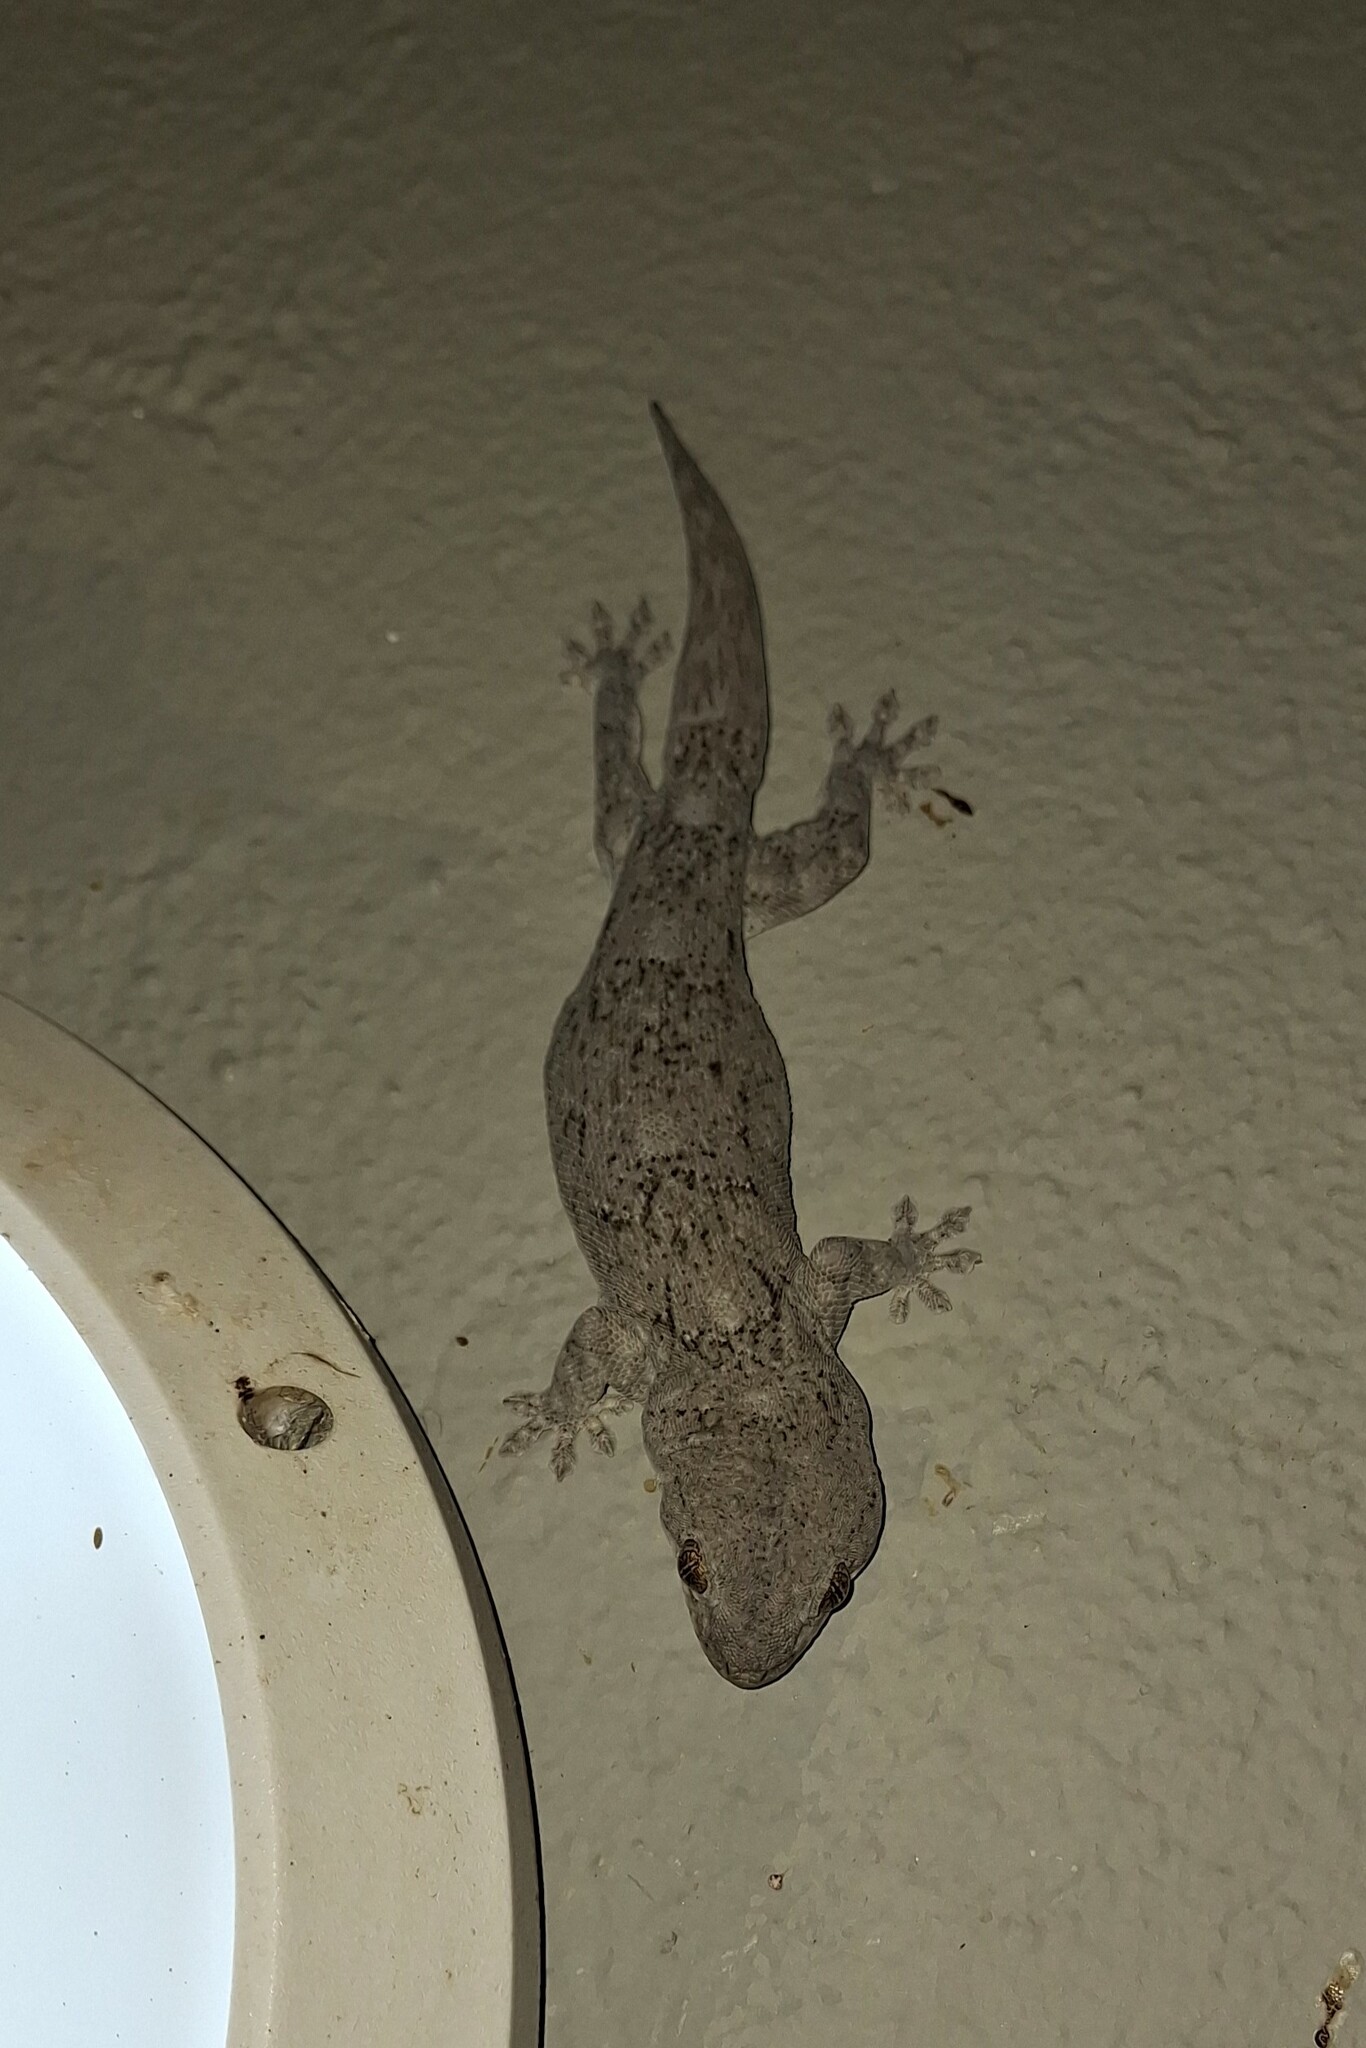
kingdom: Animalia
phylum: Chordata
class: Squamata
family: Gekkonidae
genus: Homopholis
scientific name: Homopholis walbergii
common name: Wahlberg’s velvet gecko
